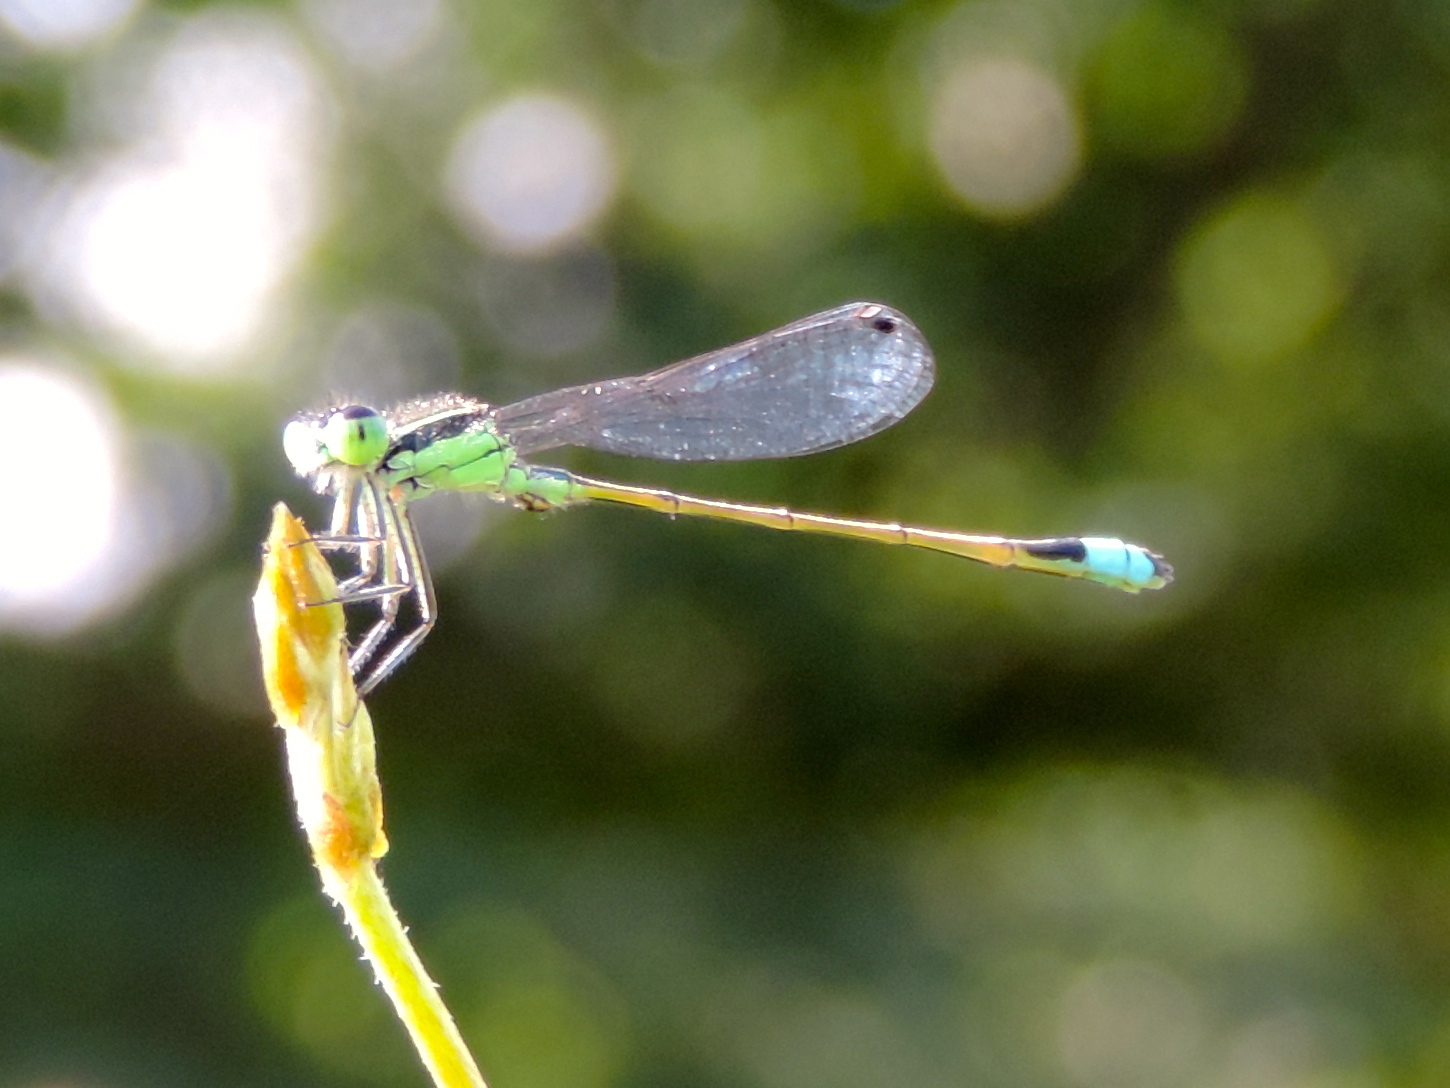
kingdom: Animalia
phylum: Arthropoda
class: Insecta
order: Odonata
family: Coenagrionidae
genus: Ischnura
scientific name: Ischnura ramburii
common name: Rambur's forktail
